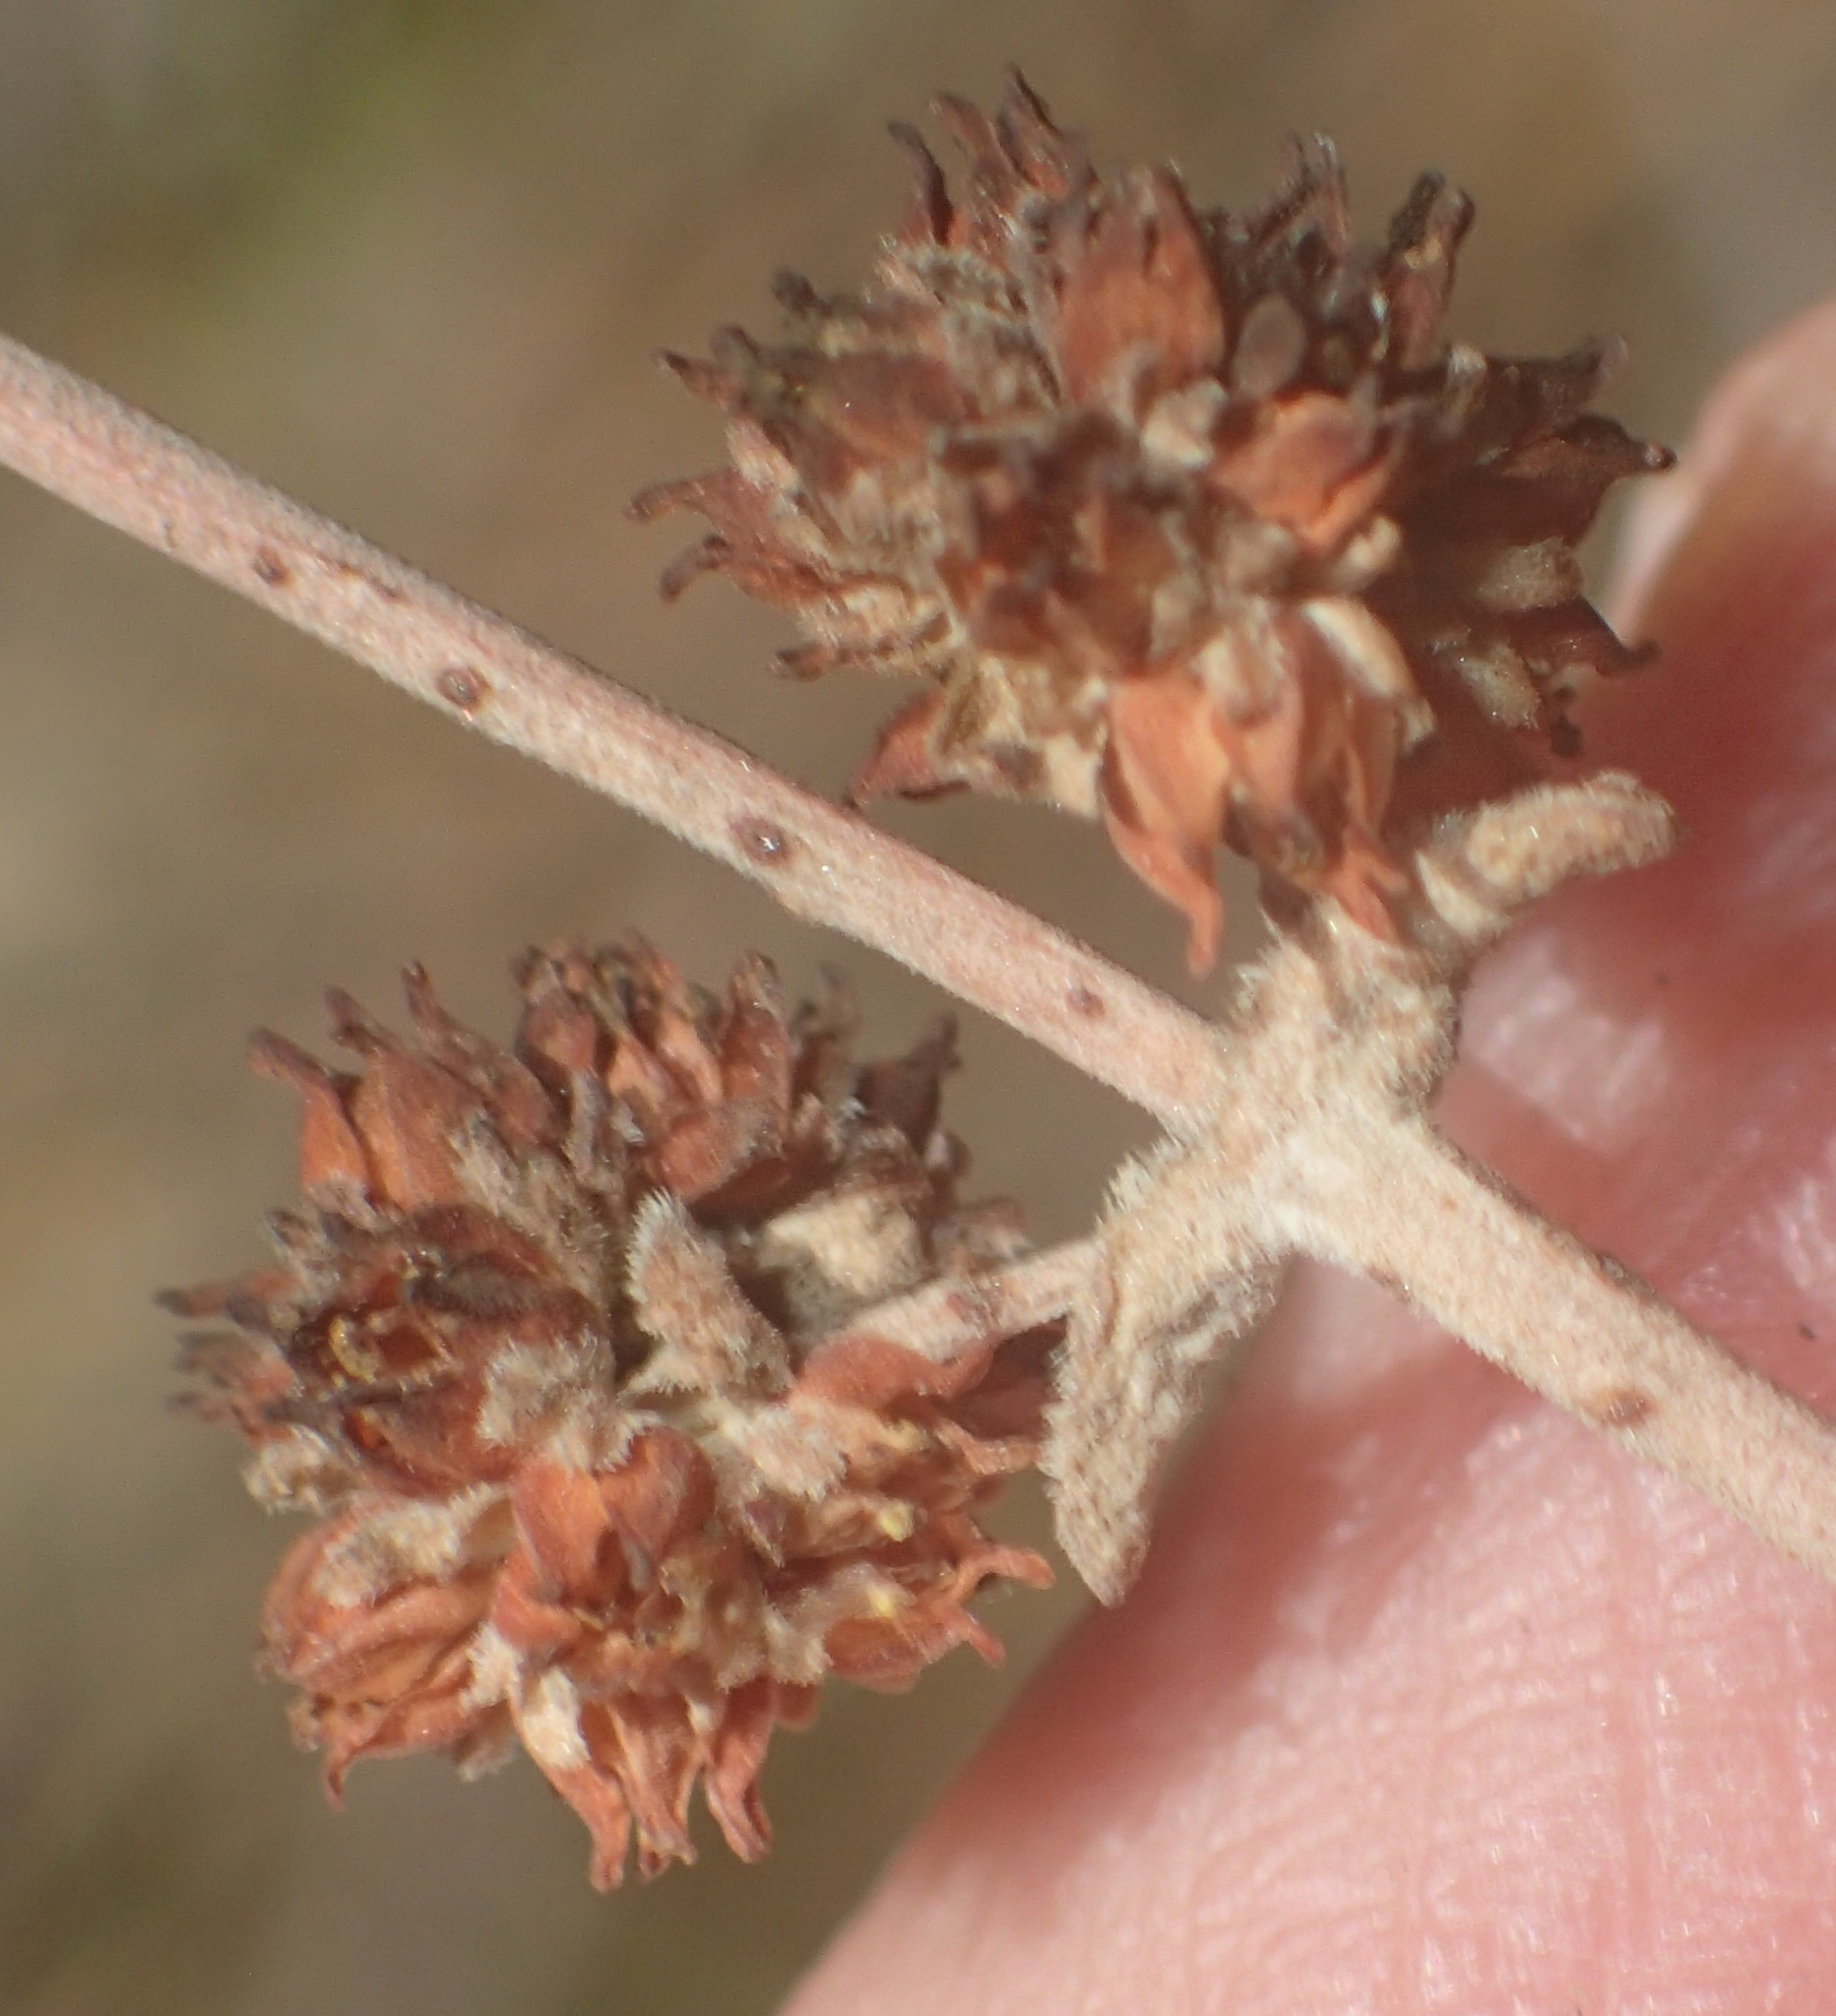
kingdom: Plantae
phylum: Tracheophyta
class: Magnoliopsida
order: Saxifragales
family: Crassulaceae
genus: Crassula
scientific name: Crassula nudicaulis
